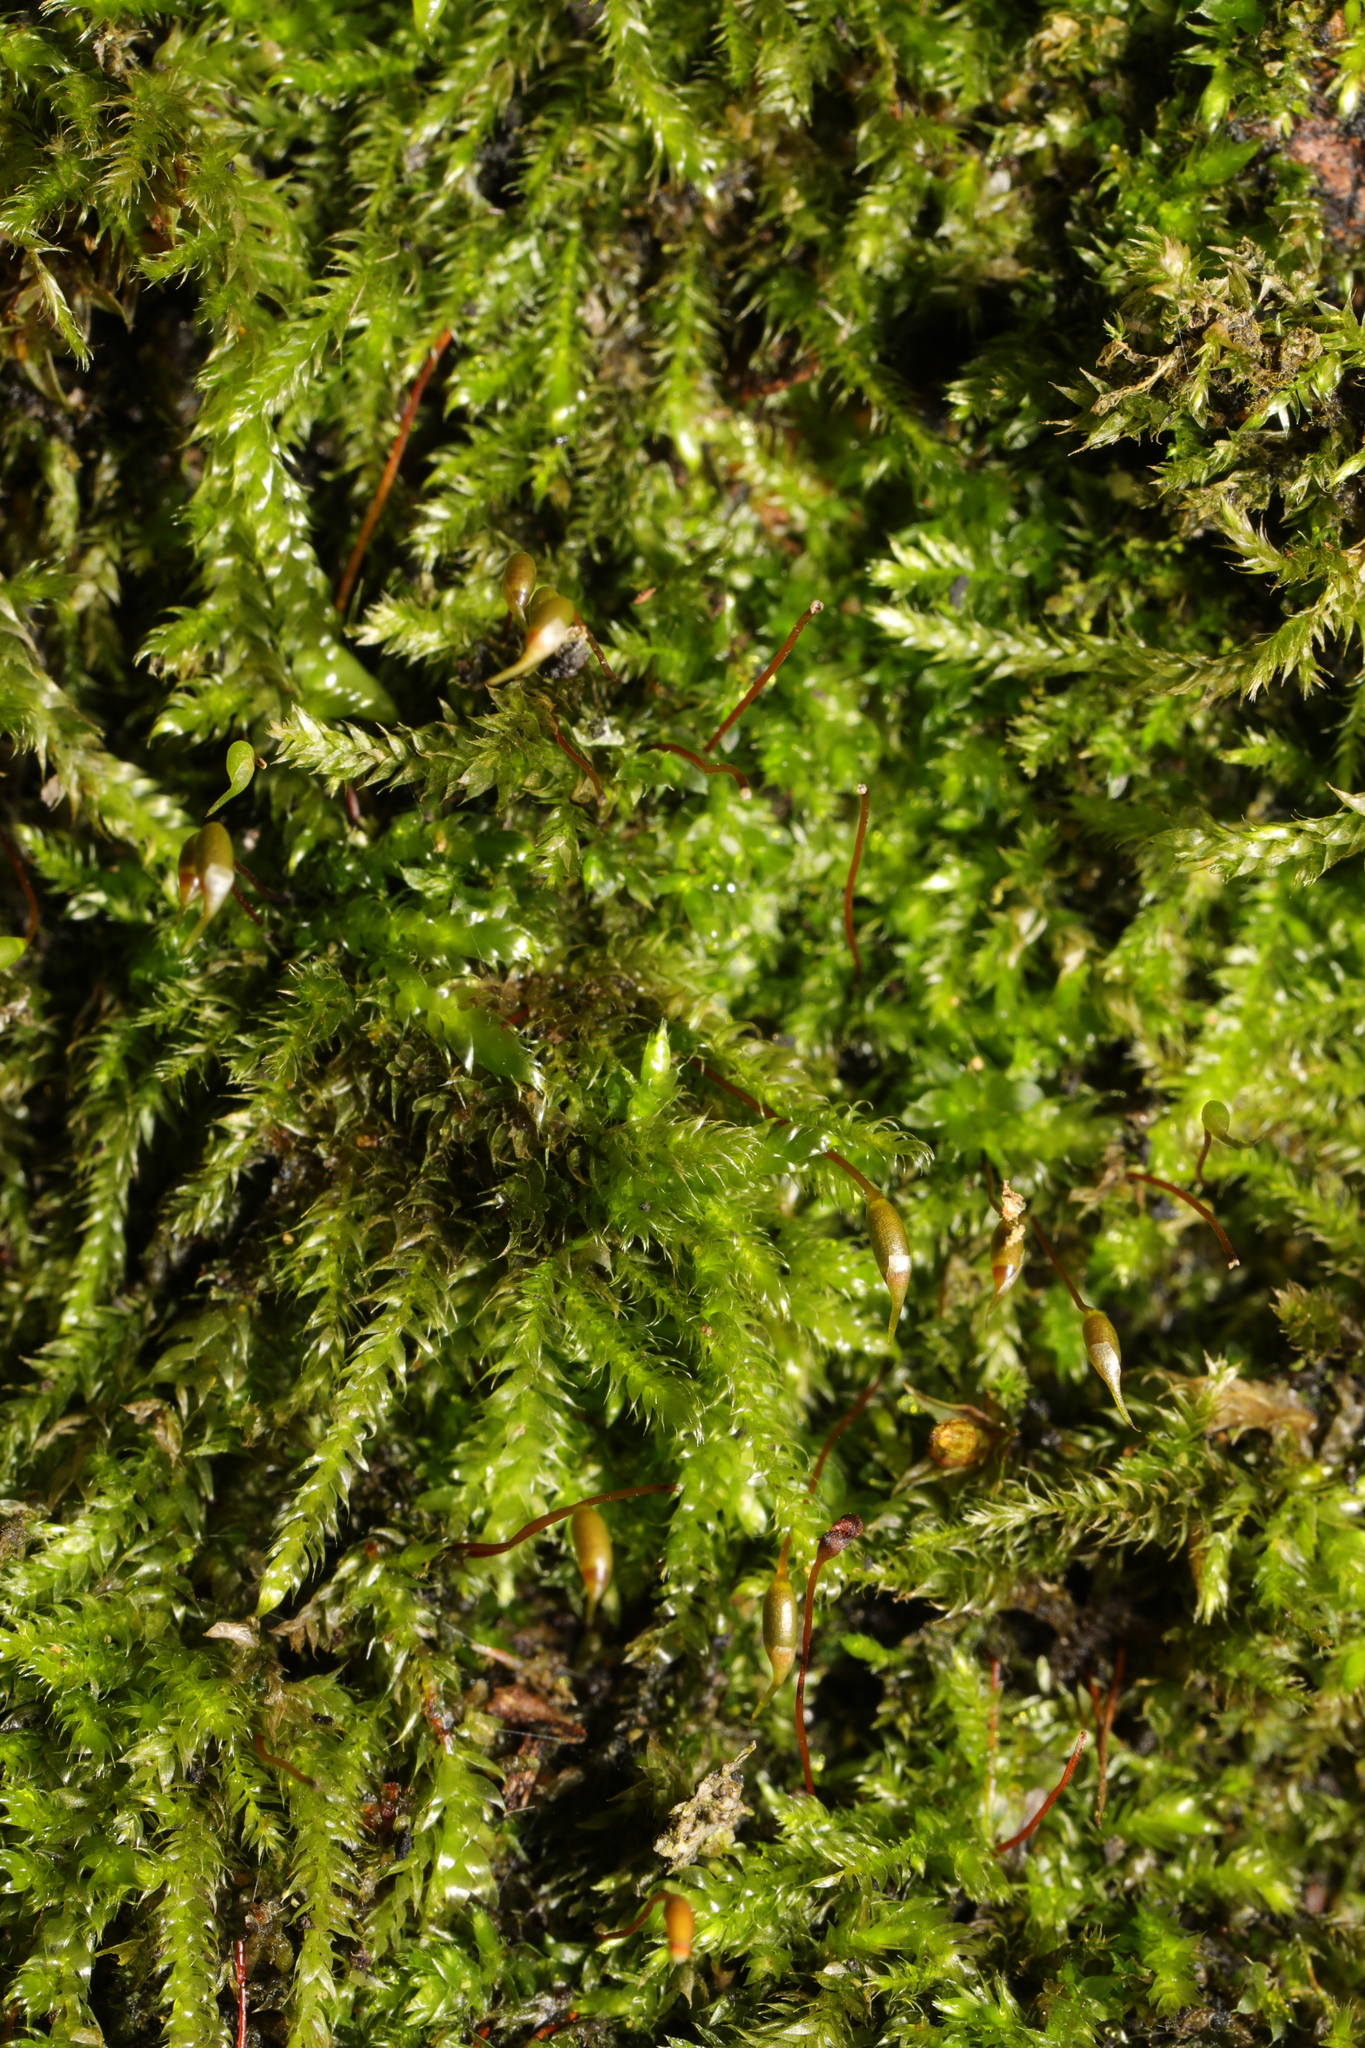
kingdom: Plantae
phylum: Bryophyta
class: Bryopsida
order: Hypnales
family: Hypnaceae
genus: Hypnum
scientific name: Hypnum cupressiforme
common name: Cypress-leaved plait-moss
